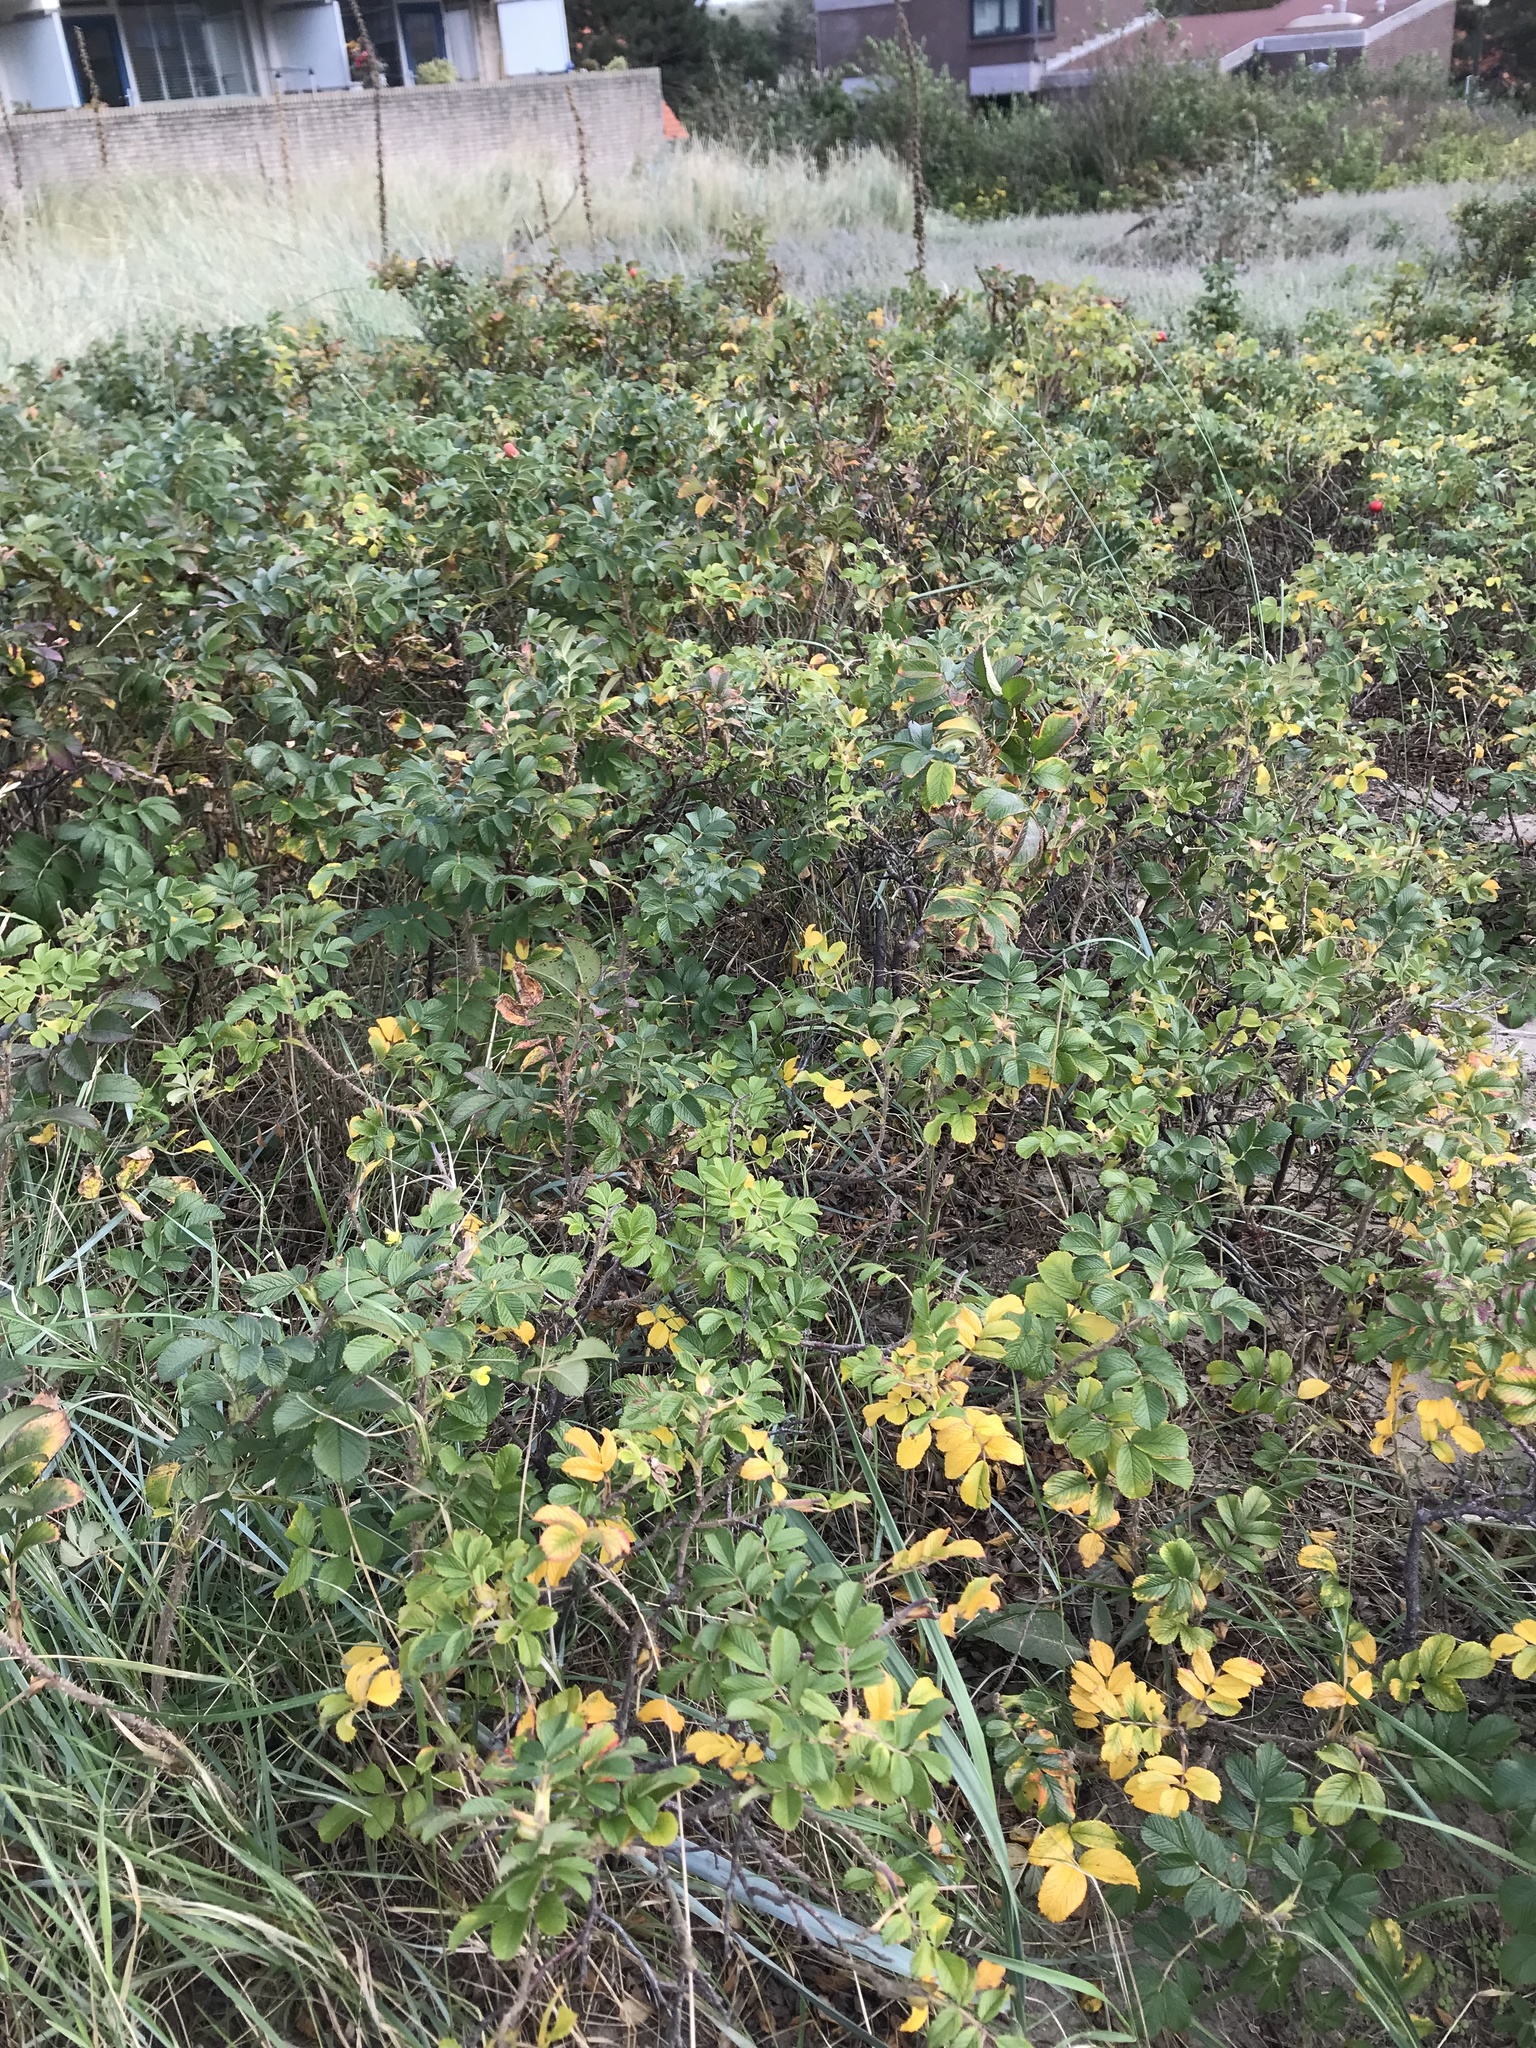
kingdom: Plantae
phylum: Tracheophyta
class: Magnoliopsida
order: Rosales
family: Rosaceae
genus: Rosa
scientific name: Rosa rugosa
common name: Japanese rose
